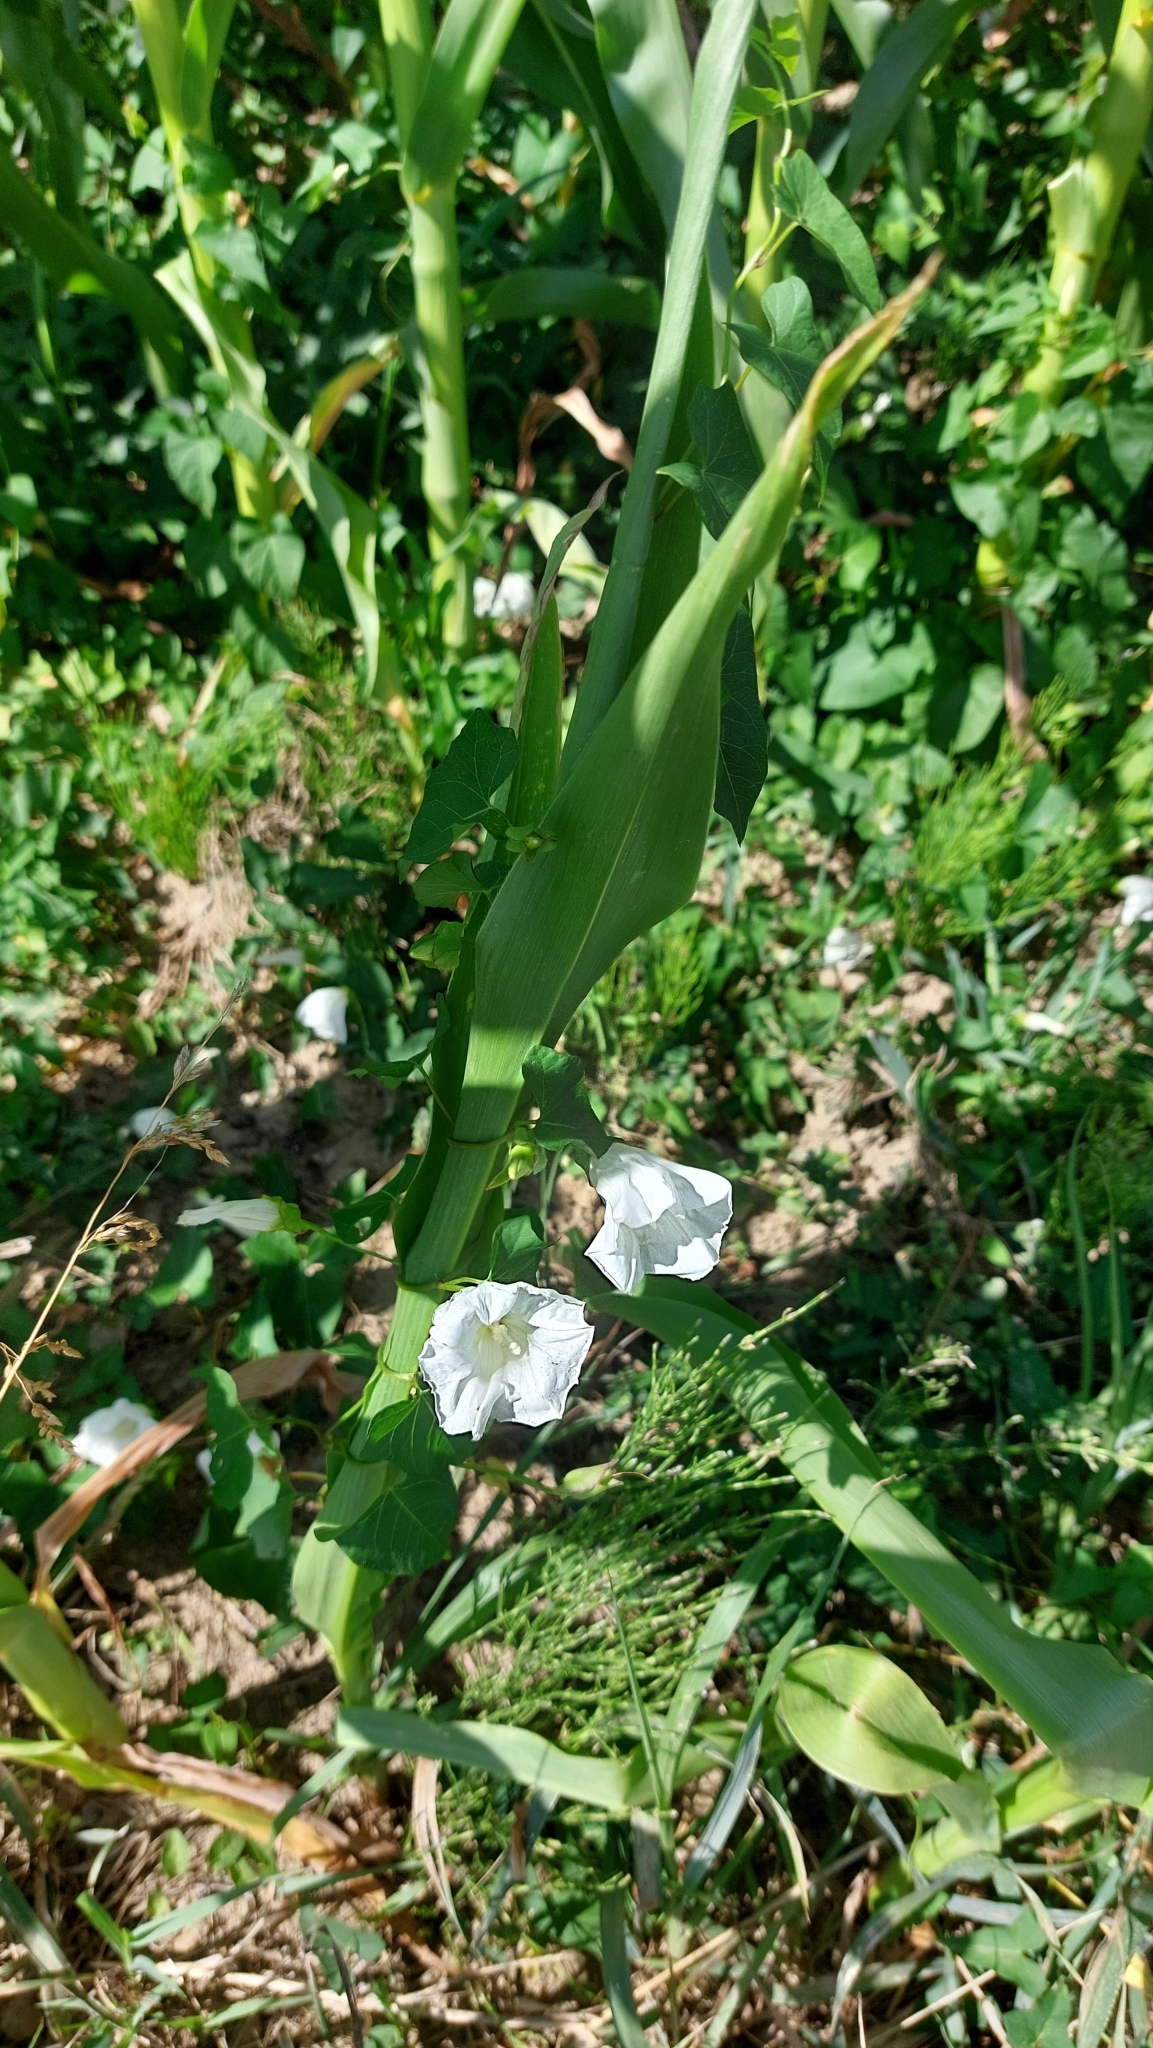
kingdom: Plantae
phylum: Tracheophyta
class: Magnoliopsida
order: Solanales
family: Convolvulaceae
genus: Calystegia
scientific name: Calystegia sepium
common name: Hedge bindweed
